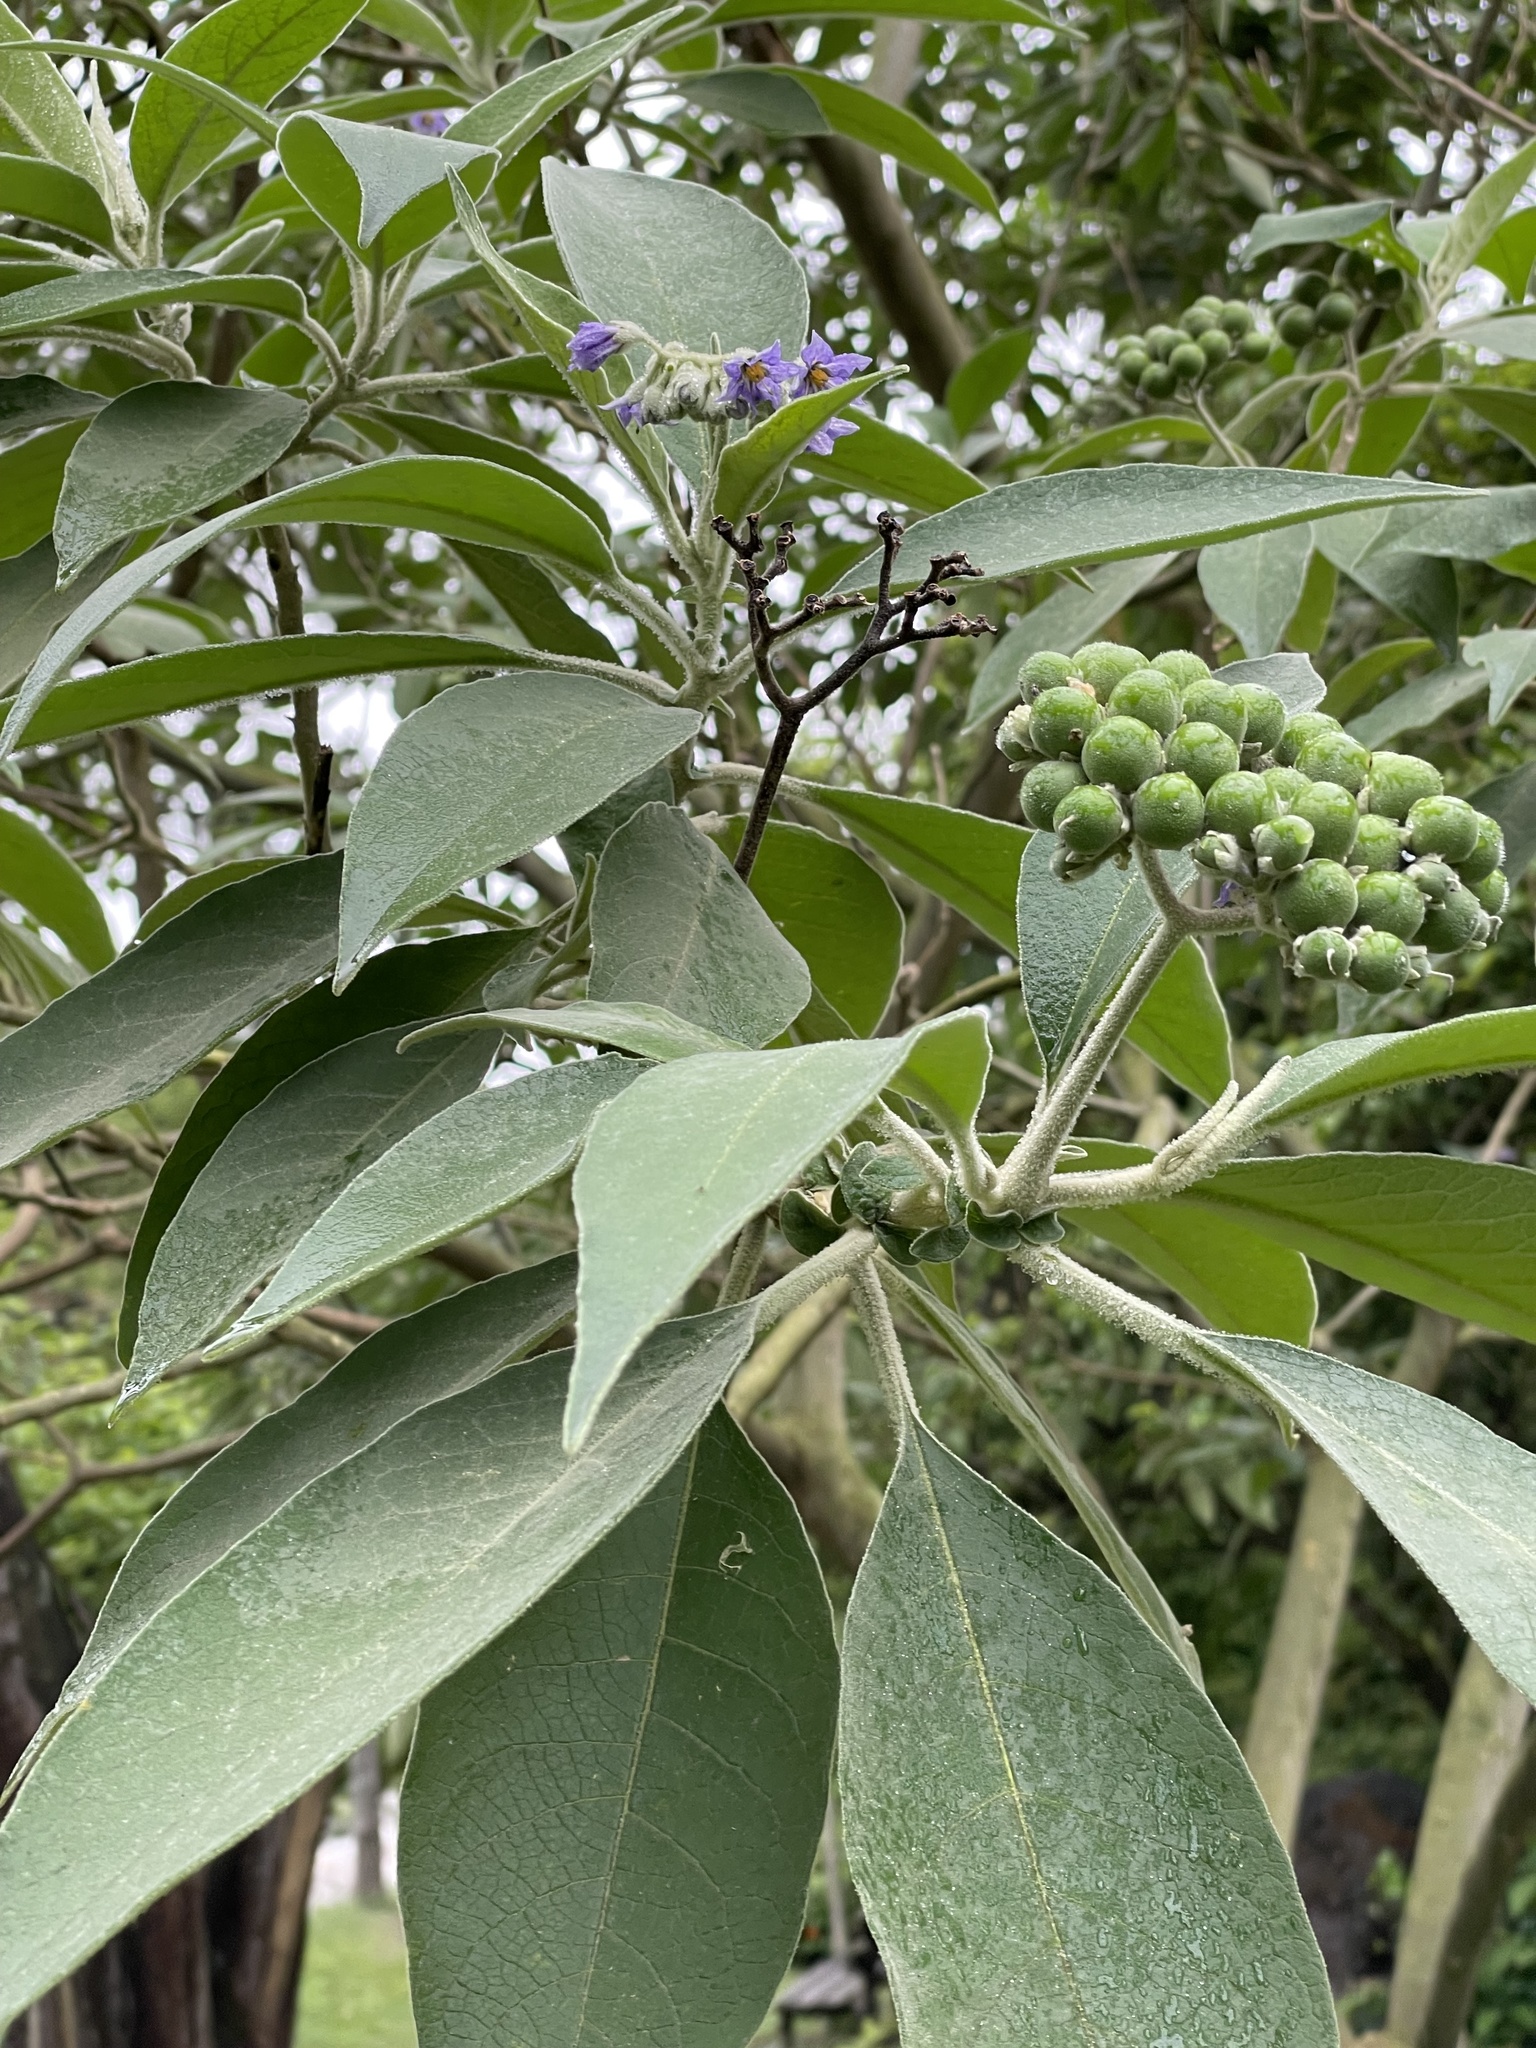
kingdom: Plantae
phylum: Tracheophyta
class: Magnoliopsida
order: Solanales
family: Solanaceae
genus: Solanum
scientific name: Solanum mauritianum
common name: Earleaf nightshade
